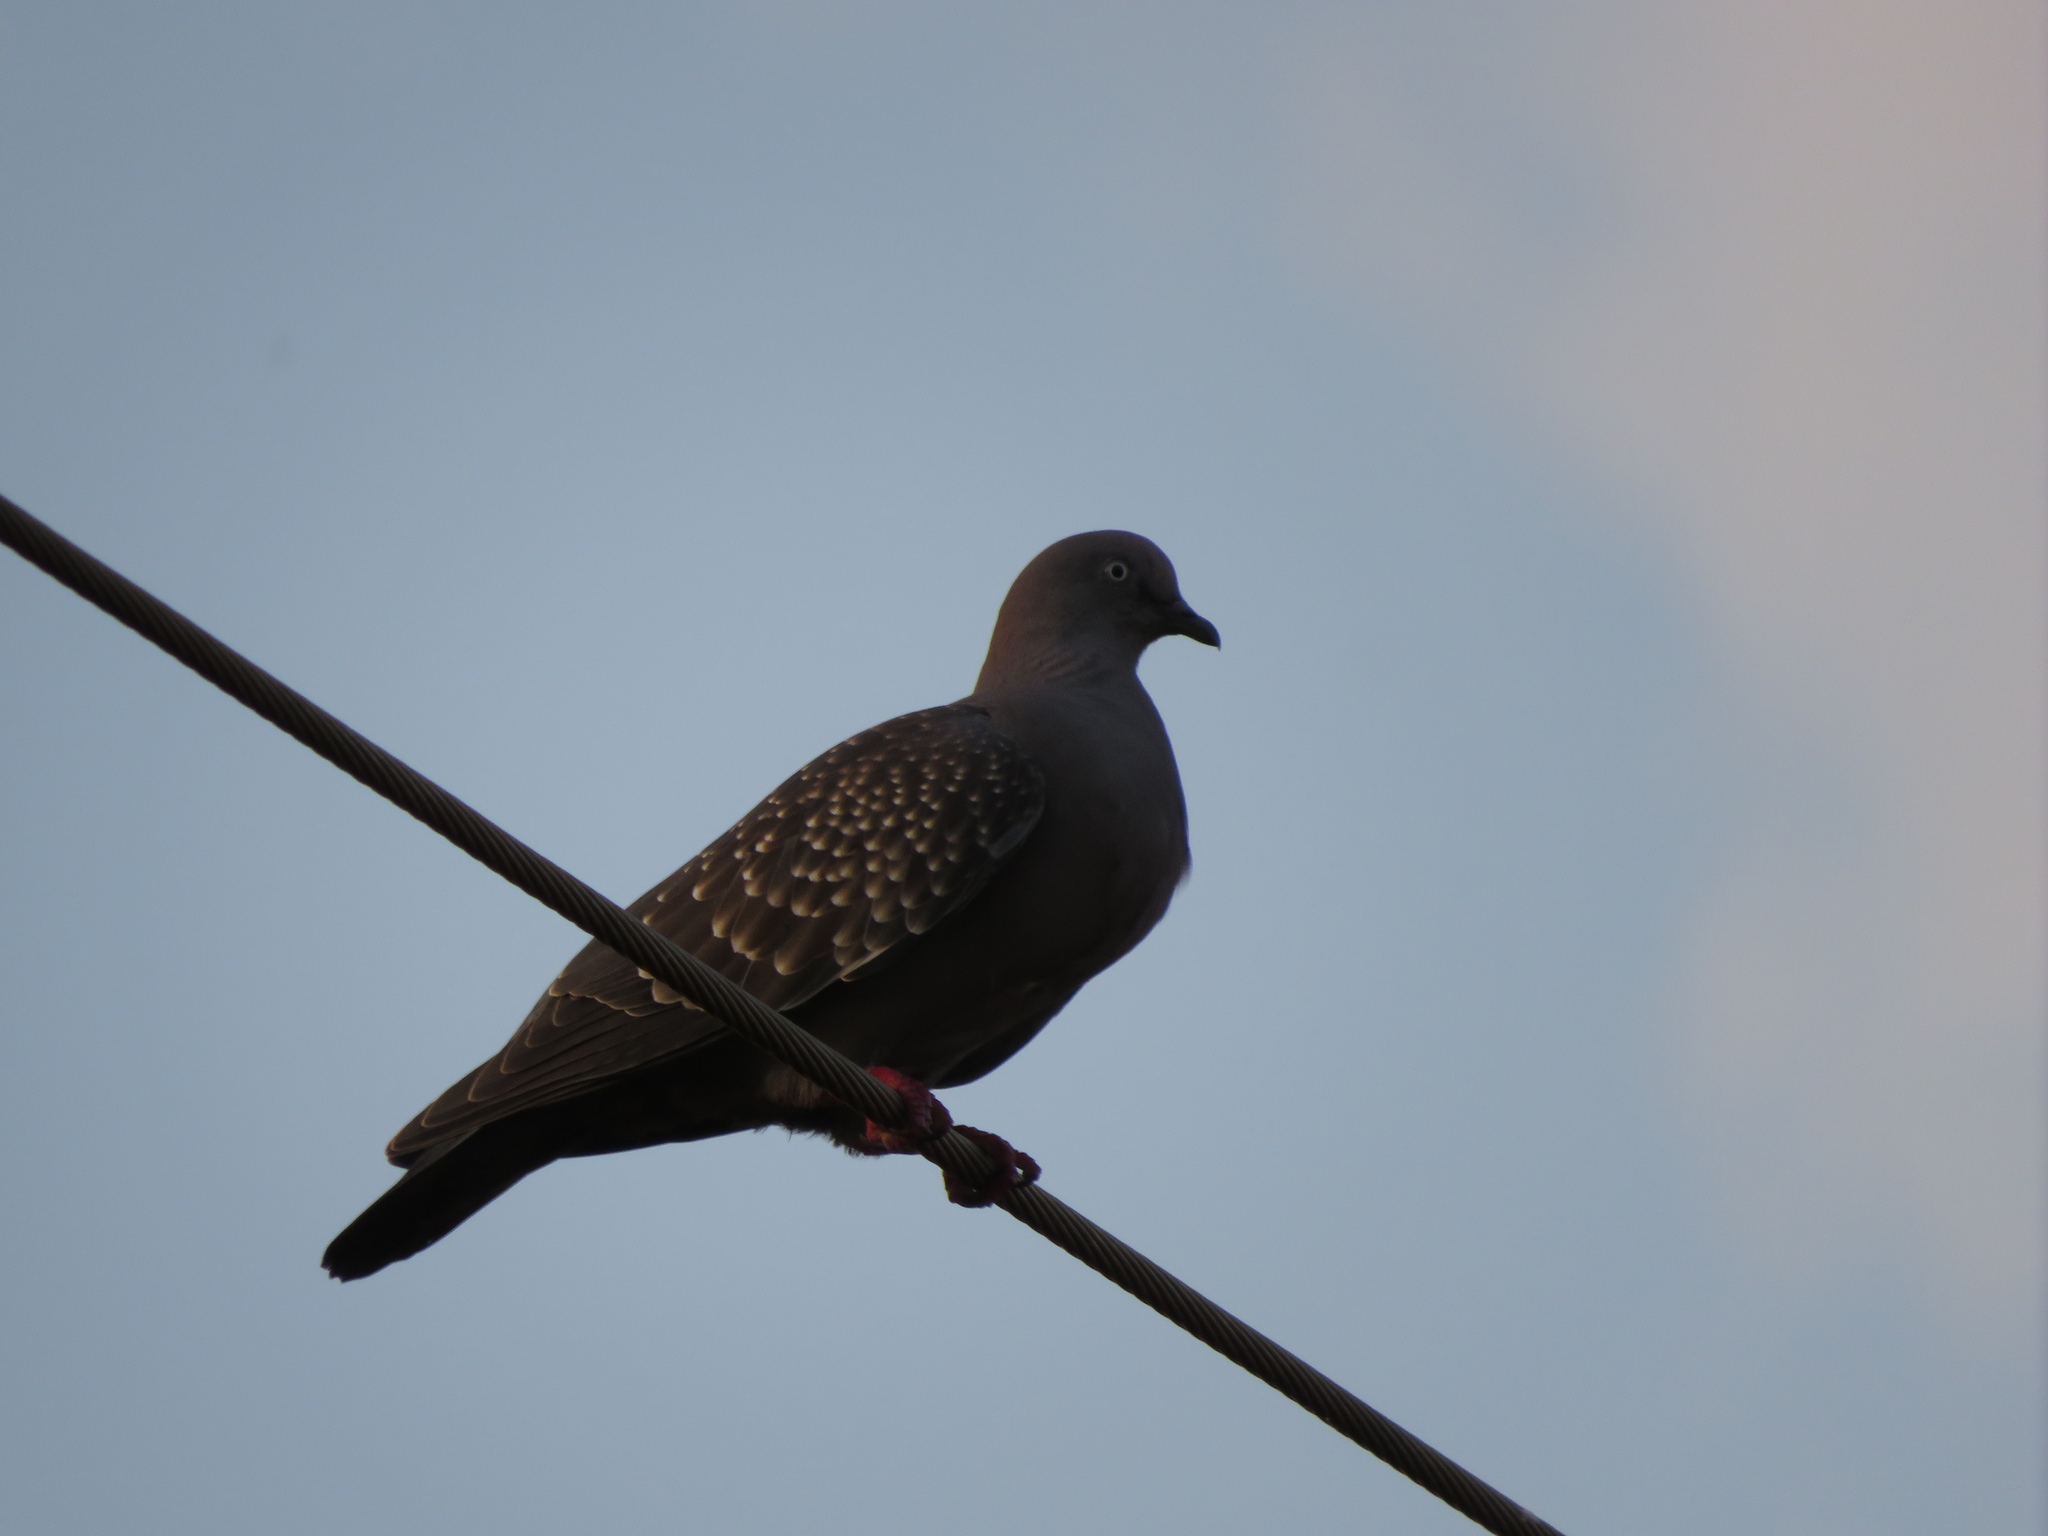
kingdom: Animalia
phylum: Chordata
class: Aves
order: Columbiformes
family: Columbidae
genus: Patagioenas
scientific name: Patagioenas maculosa
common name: Spot-winged pigeon
